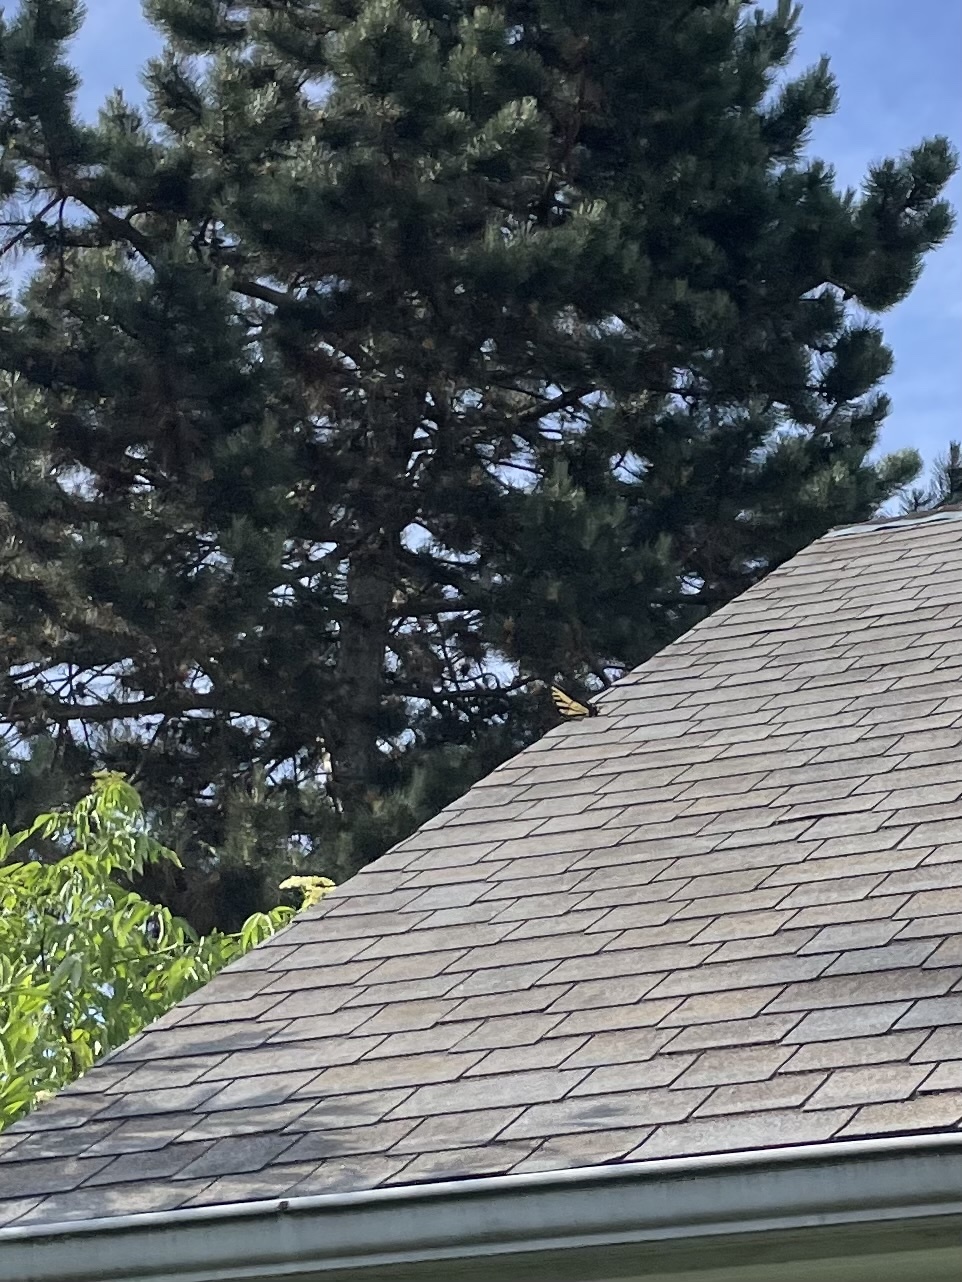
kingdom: Animalia
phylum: Arthropoda
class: Insecta
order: Lepidoptera
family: Papilionidae
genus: Papilio
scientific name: Papilio rutulus
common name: Western tiger swallowtail
